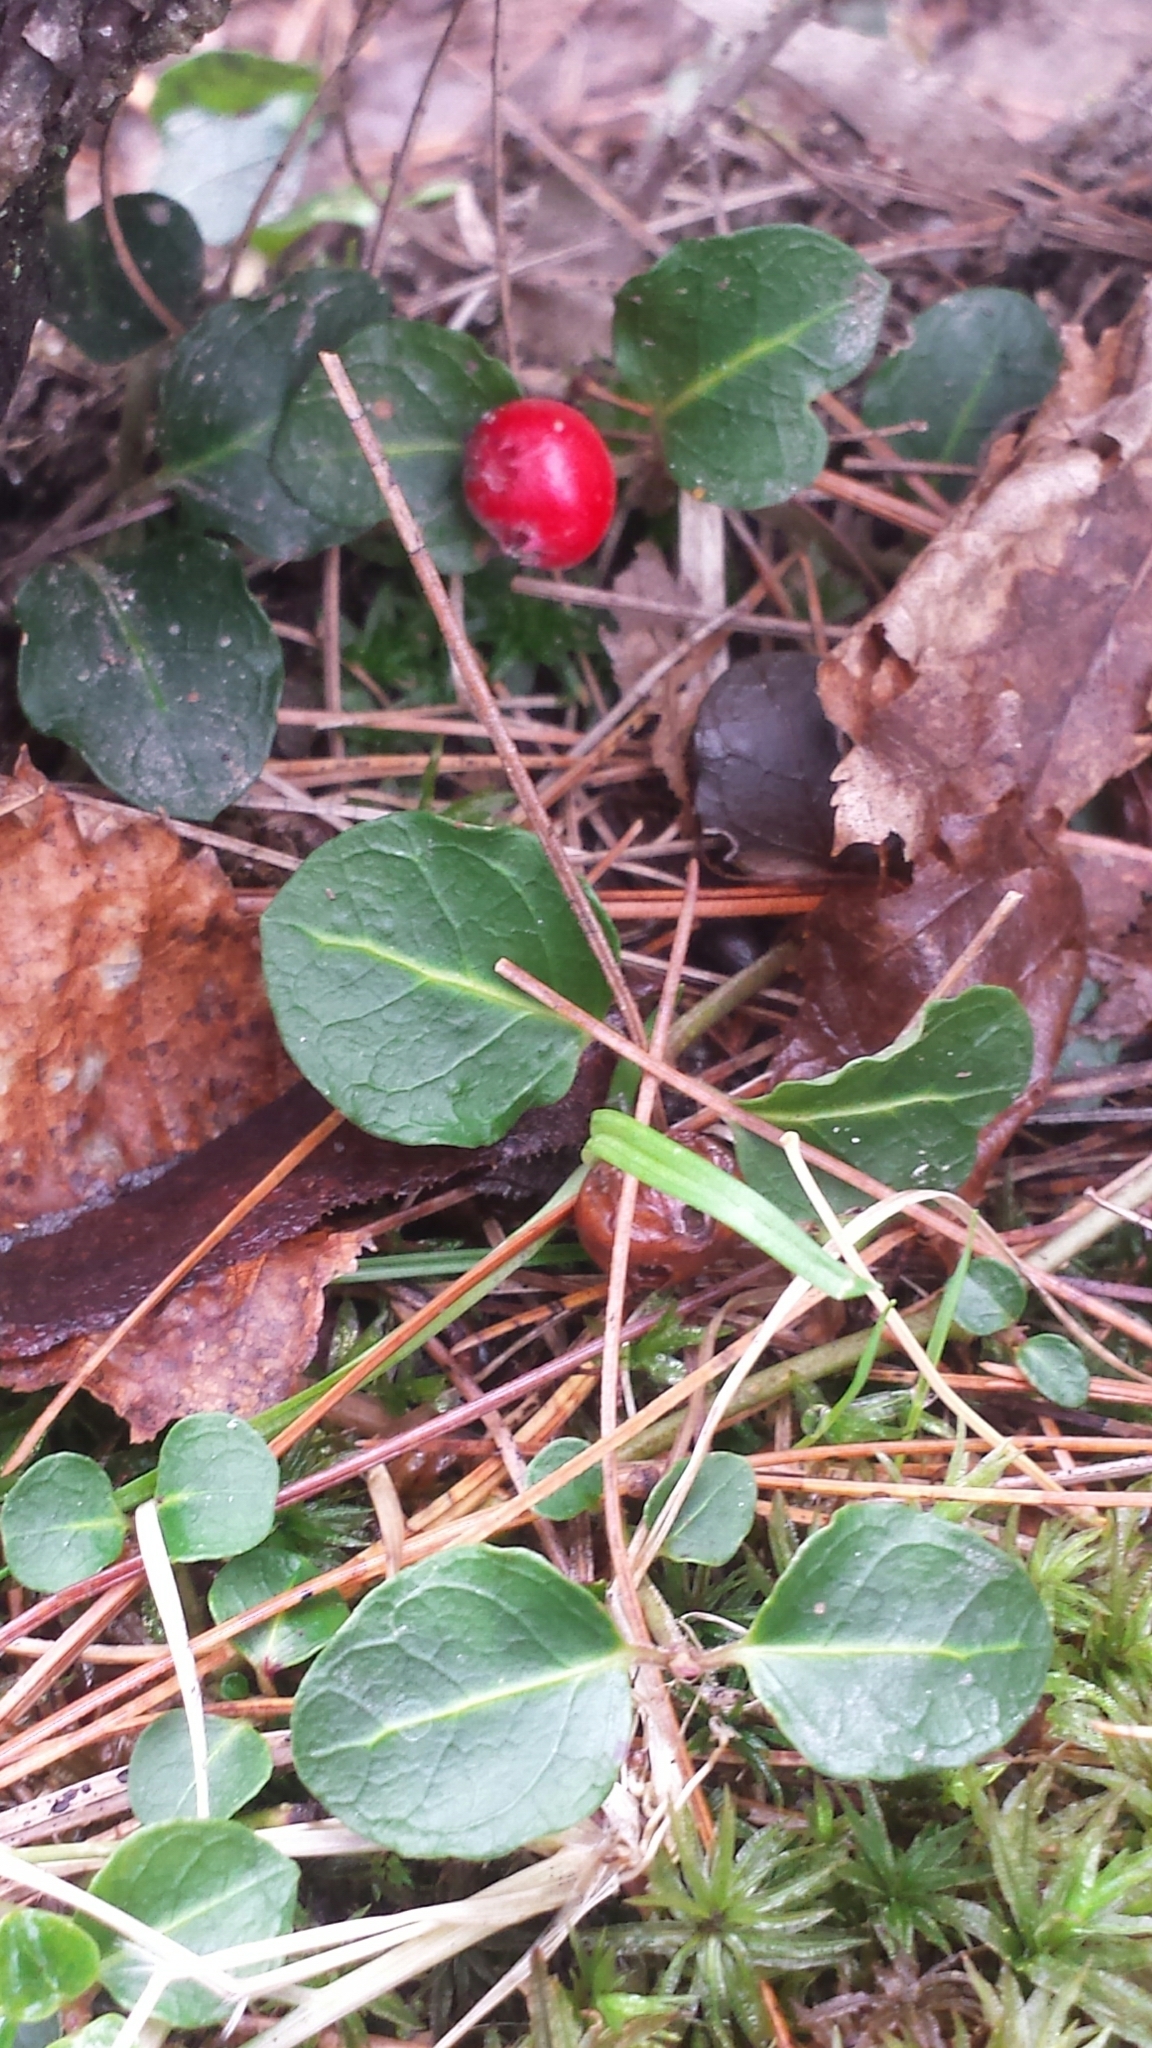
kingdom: Plantae
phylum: Tracheophyta
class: Magnoliopsida
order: Gentianales
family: Rubiaceae
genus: Mitchella
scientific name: Mitchella repens
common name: Partridge-berry
